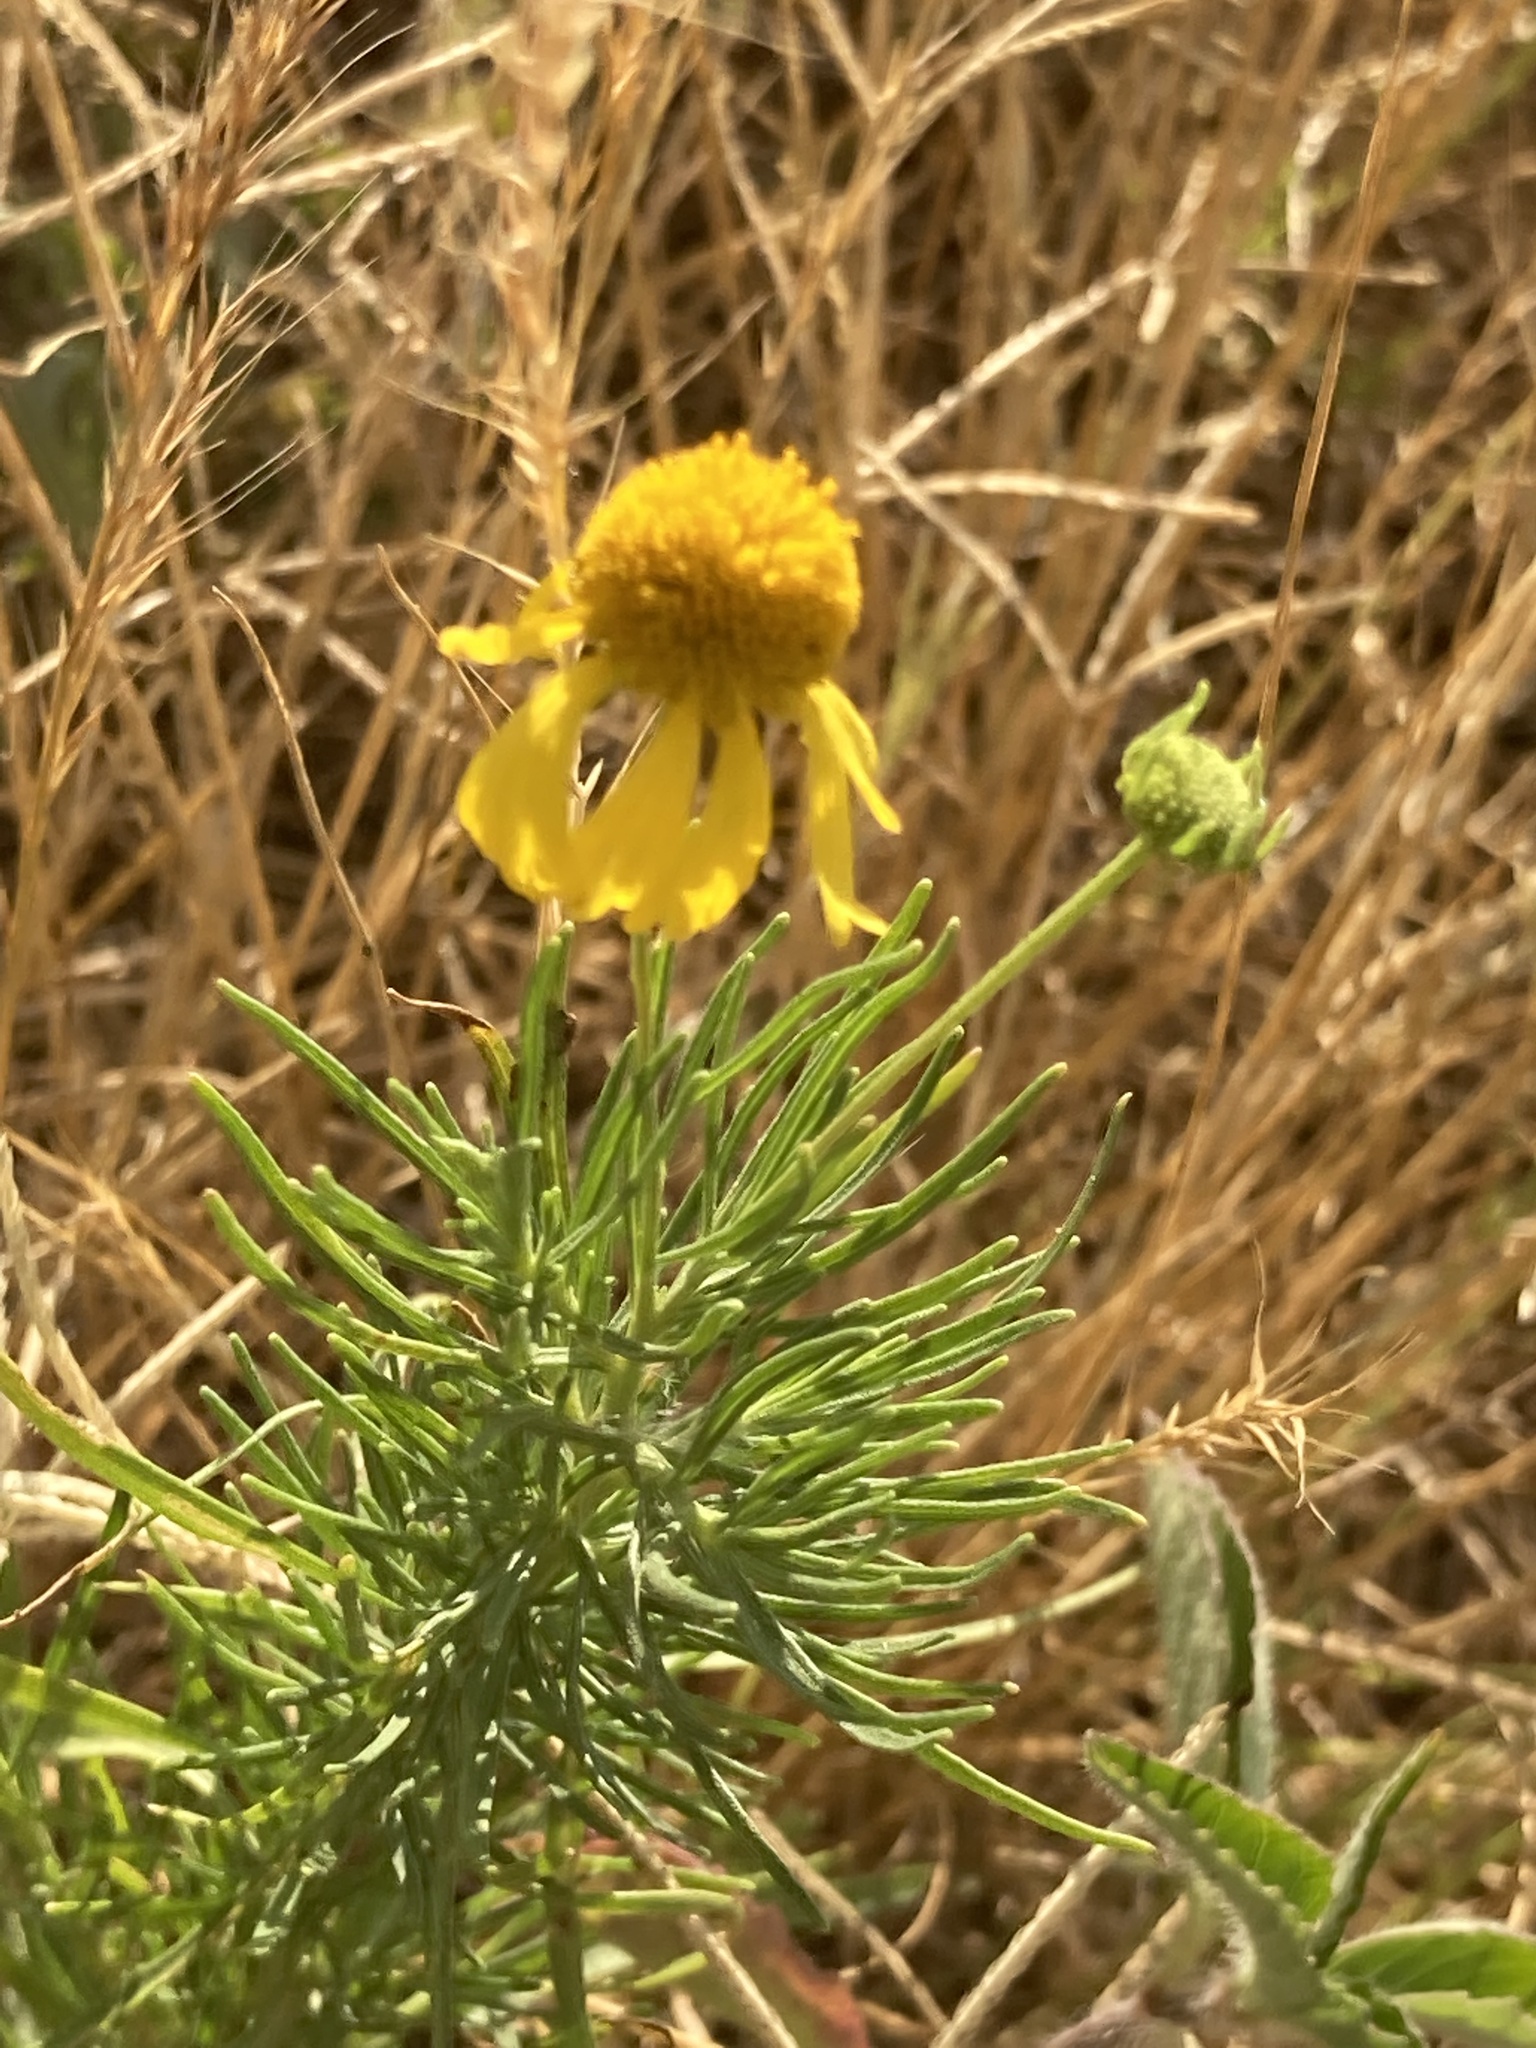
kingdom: Plantae
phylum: Tracheophyta
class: Magnoliopsida
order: Asterales
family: Asteraceae
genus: Helenium
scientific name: Helenium amarum
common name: Bitter sneezeweed
